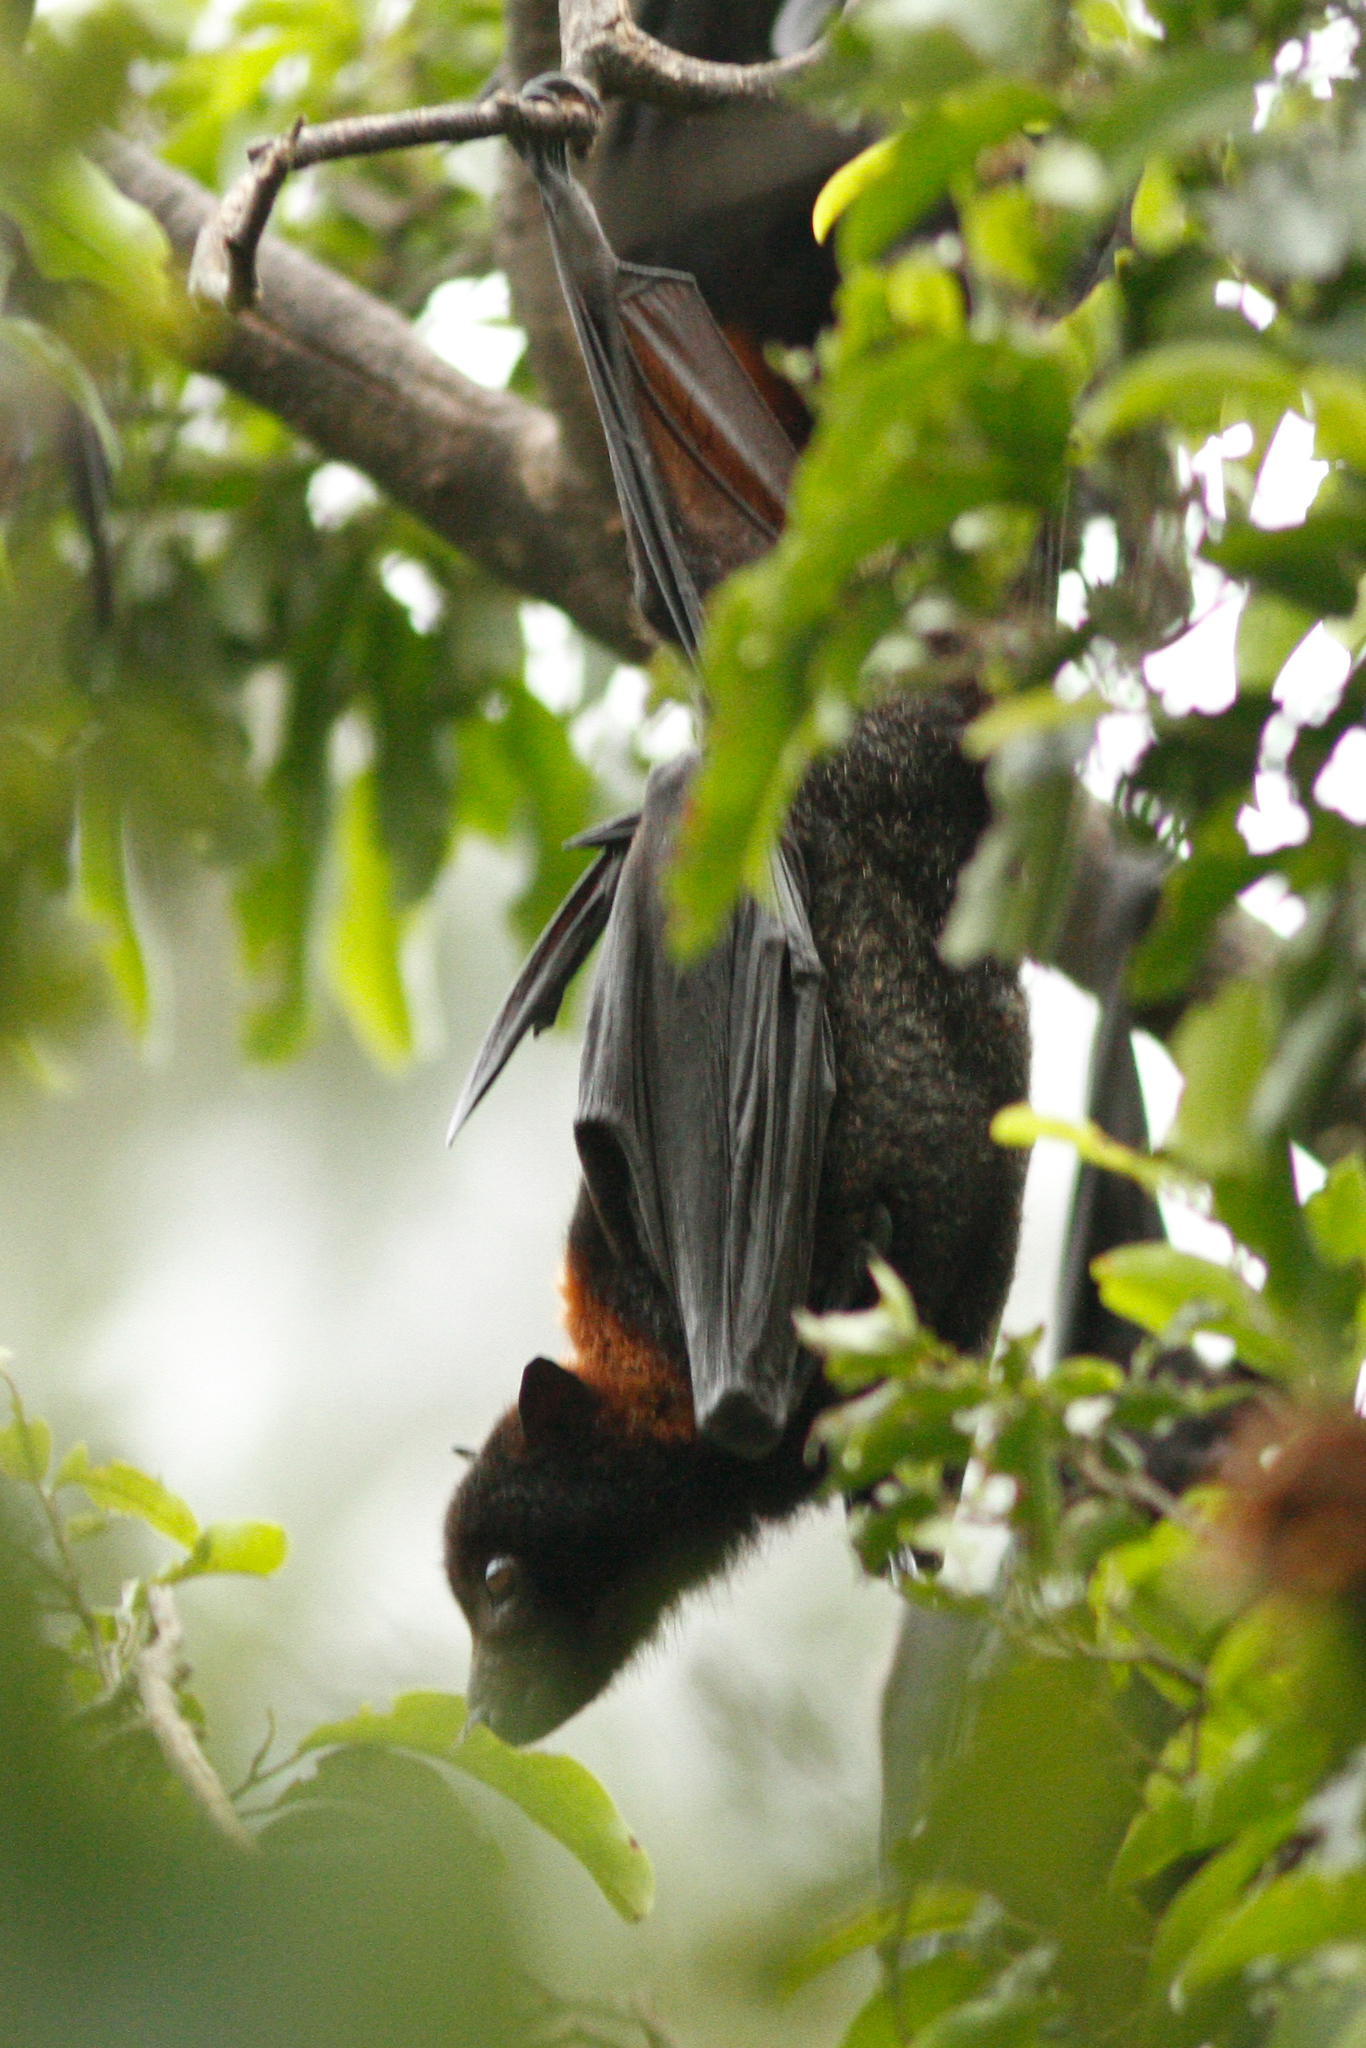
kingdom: Animalia
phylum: Chordata
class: Mammalia
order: Chiroptera
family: Pteropodidae
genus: Pteropus
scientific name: Pteropus alecto
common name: Black flying fox
